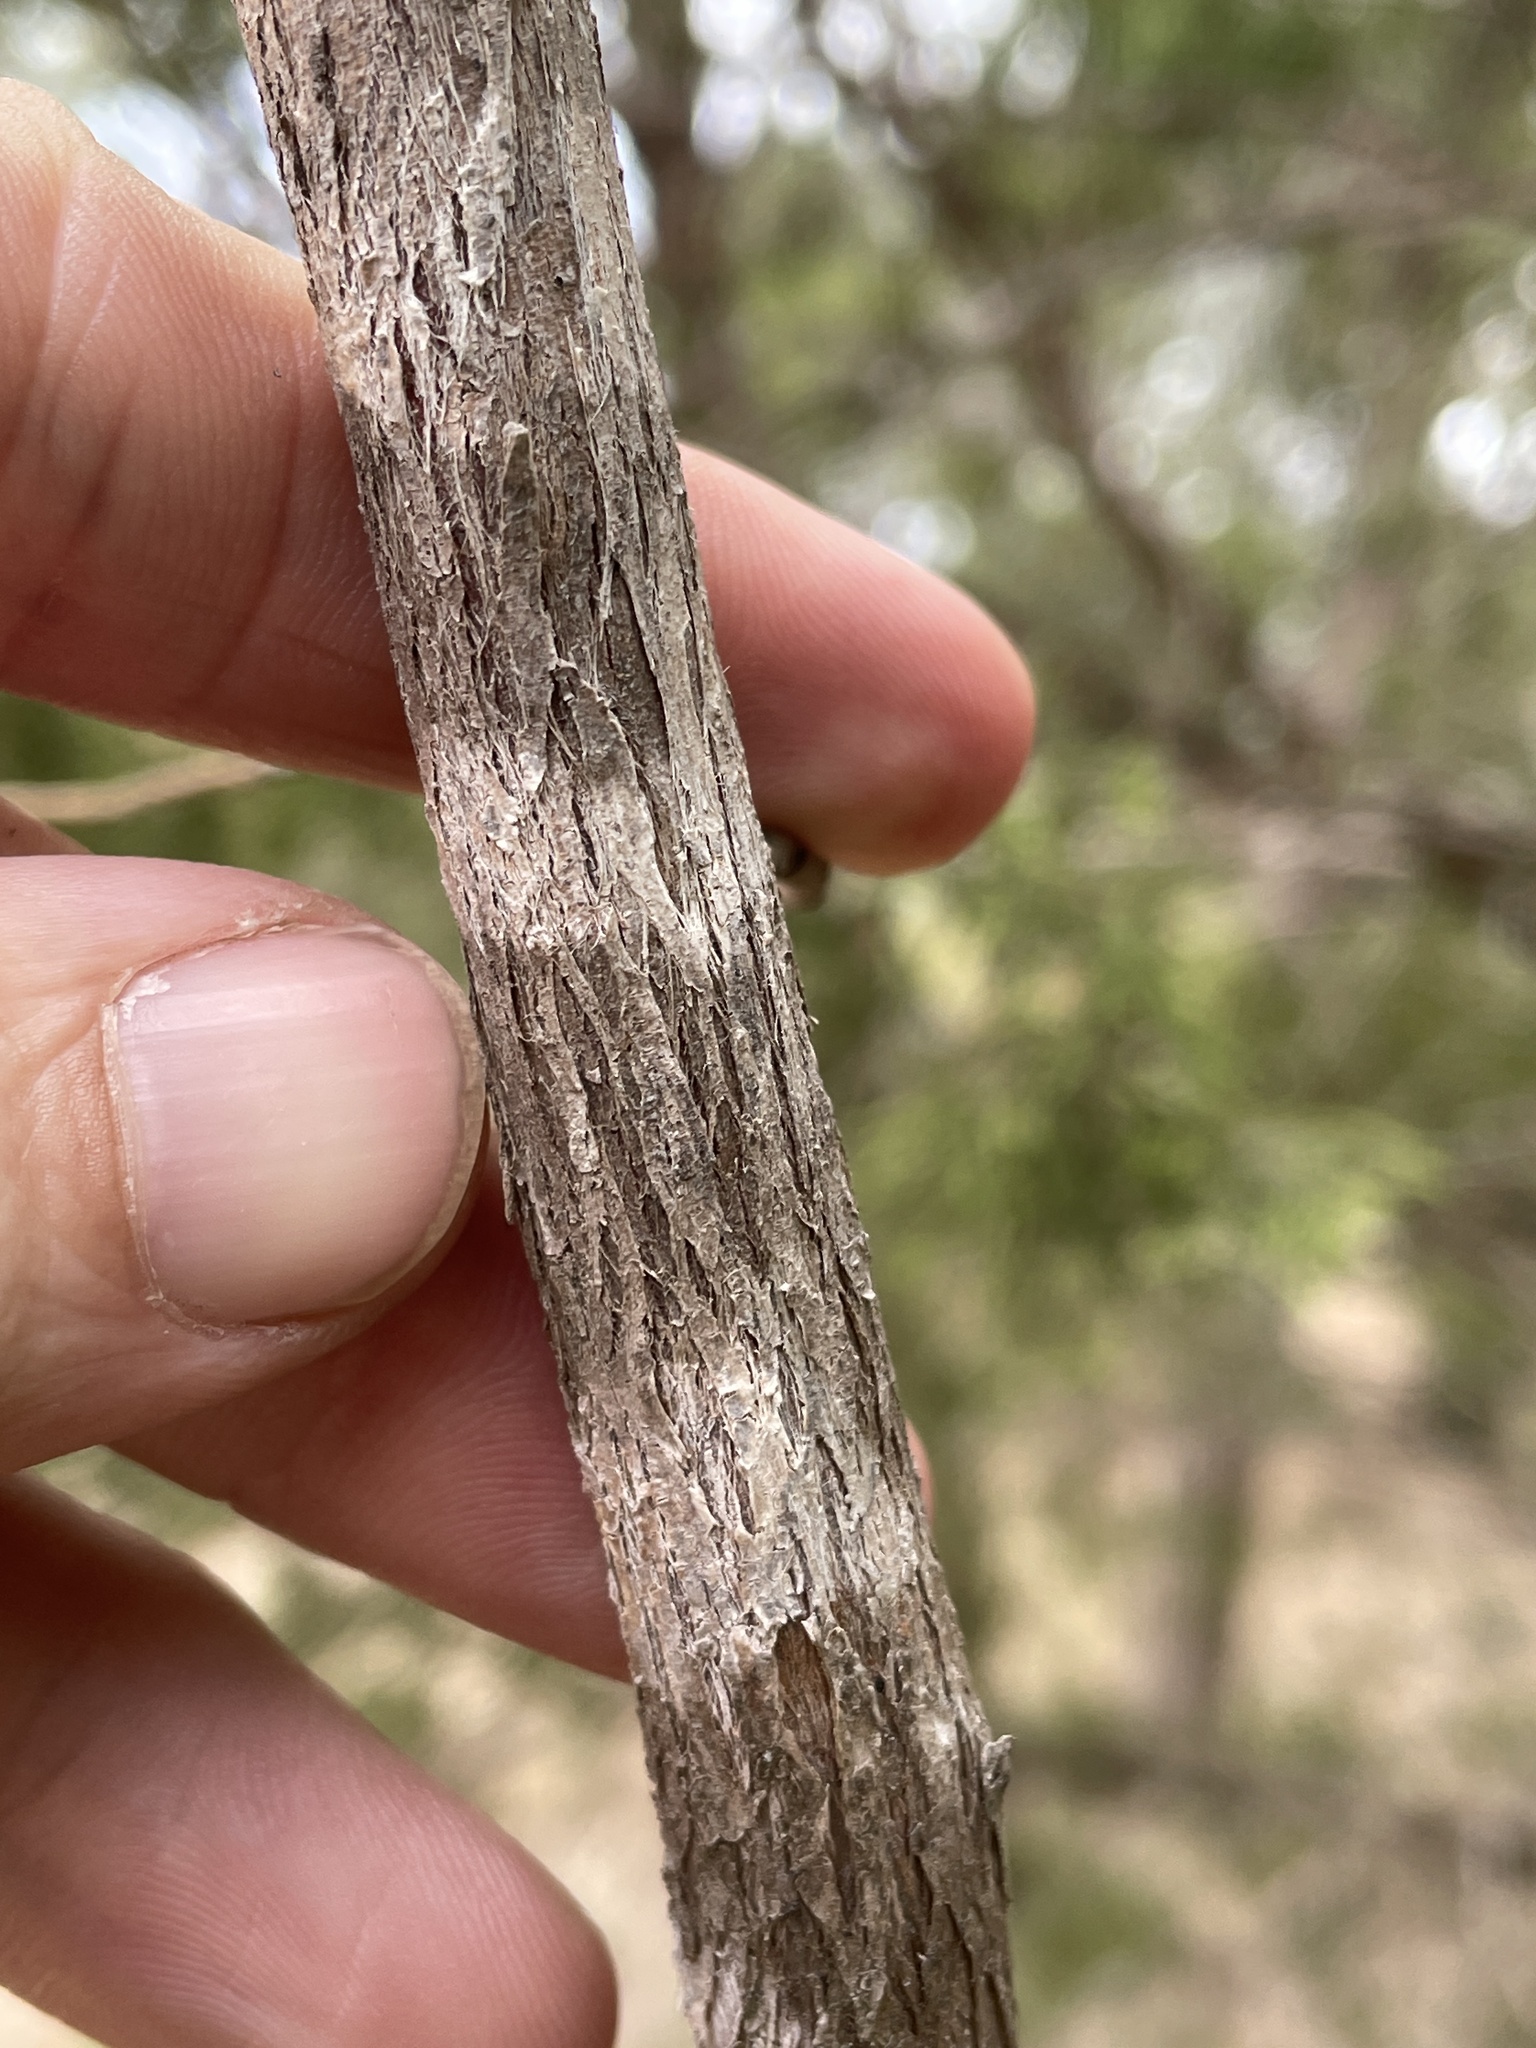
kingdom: Fungi
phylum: Ascomycota
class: Lecanoromycetes
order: Ostropales
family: Stictidaceae
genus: Robergea
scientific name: Robergea
